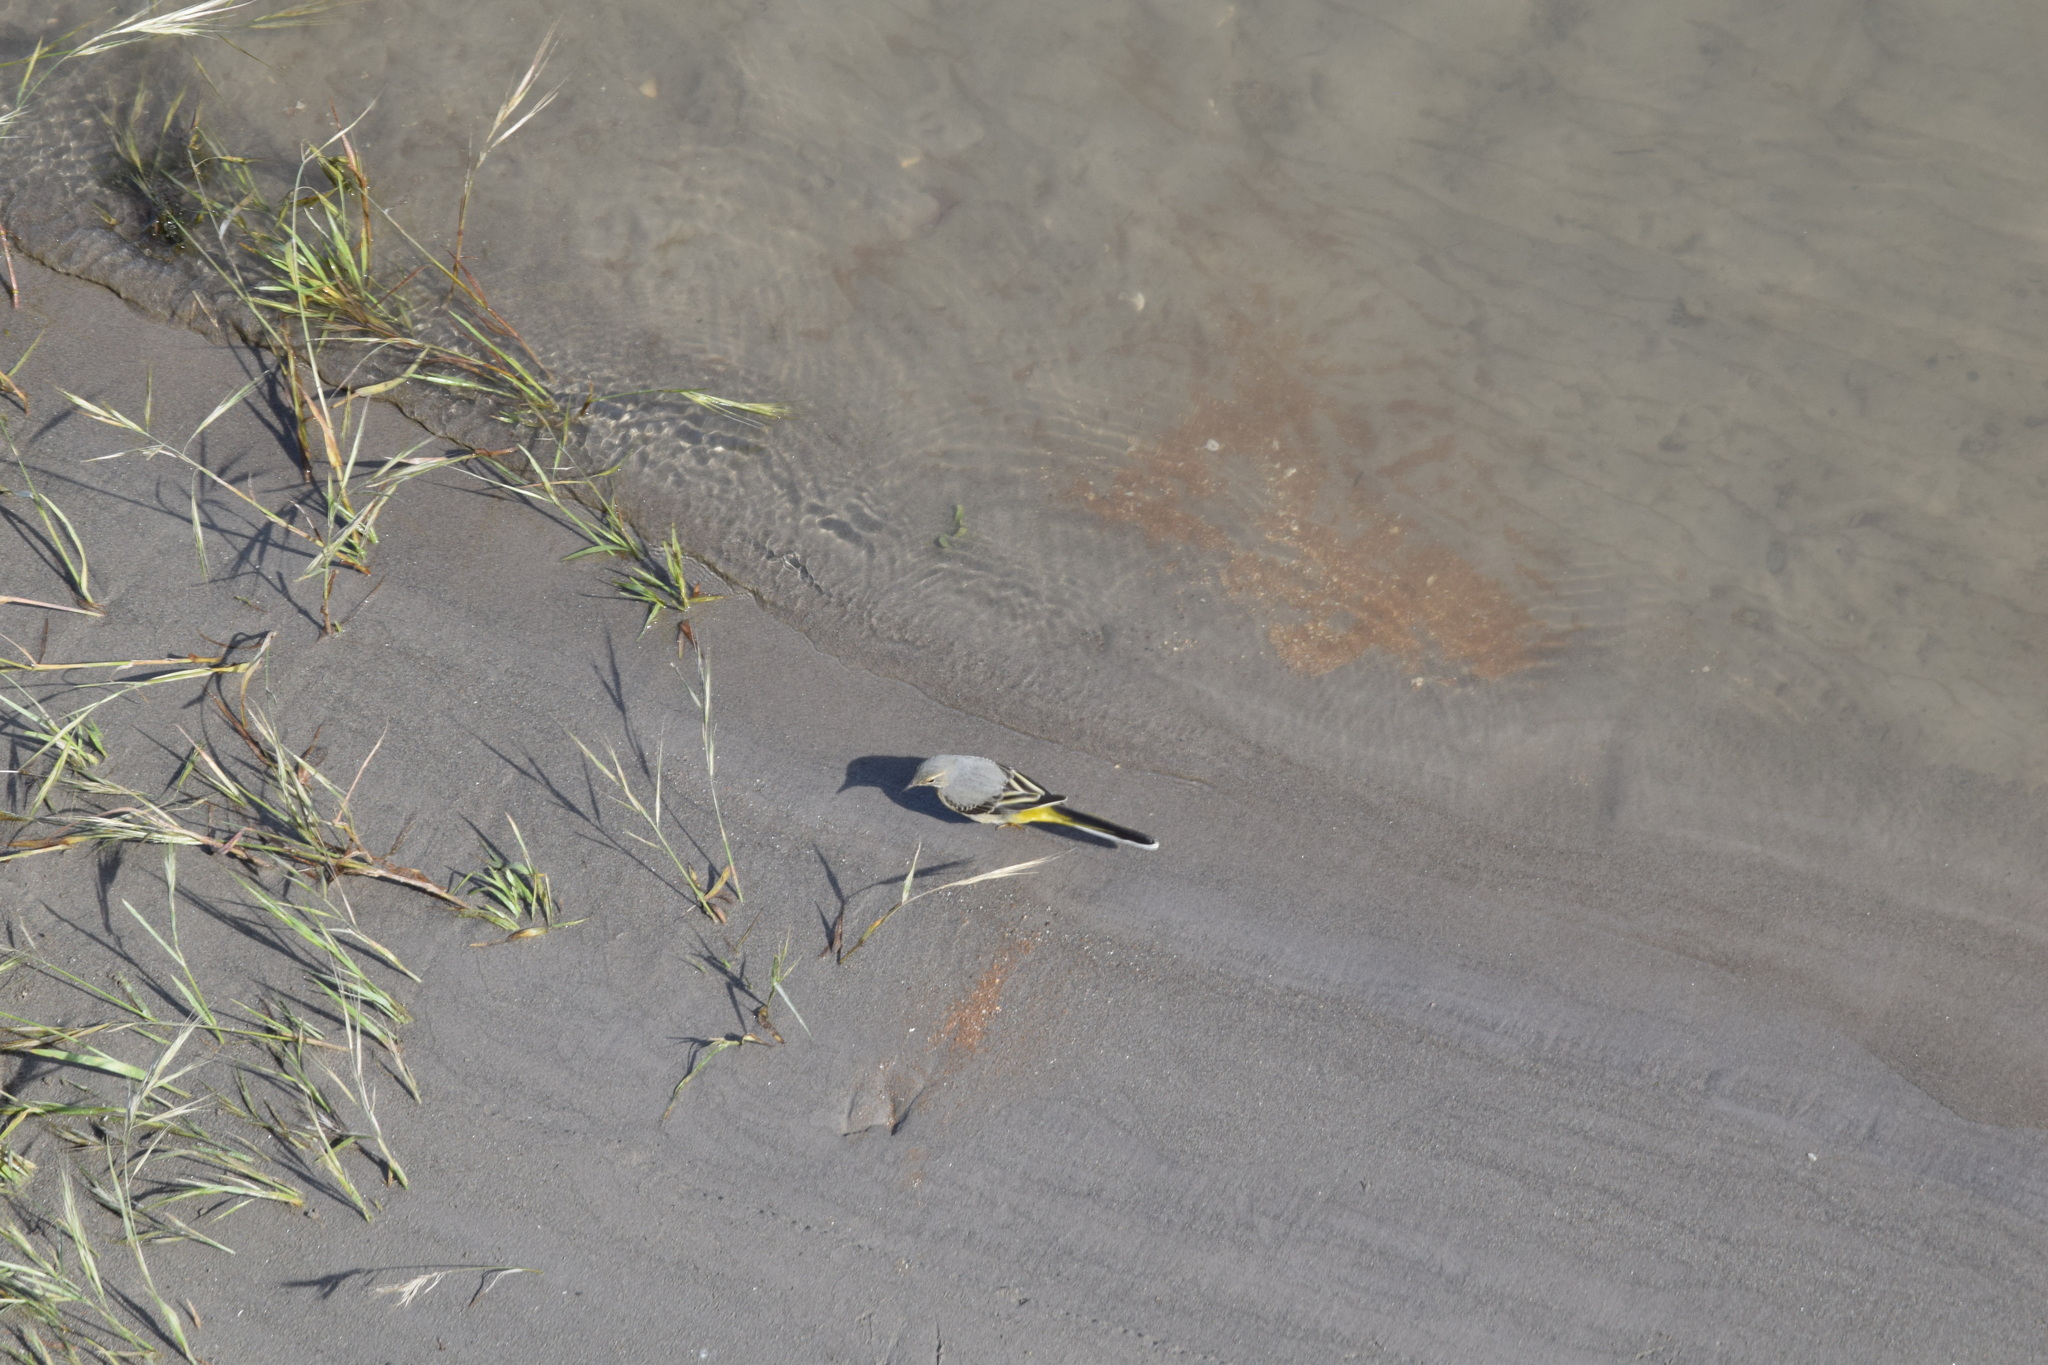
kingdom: Animalia
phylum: Chordata
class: Aves
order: Passeriformes
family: Motacillidae
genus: Motacilla
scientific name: Motacilla cinerea
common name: Grey wagtail
